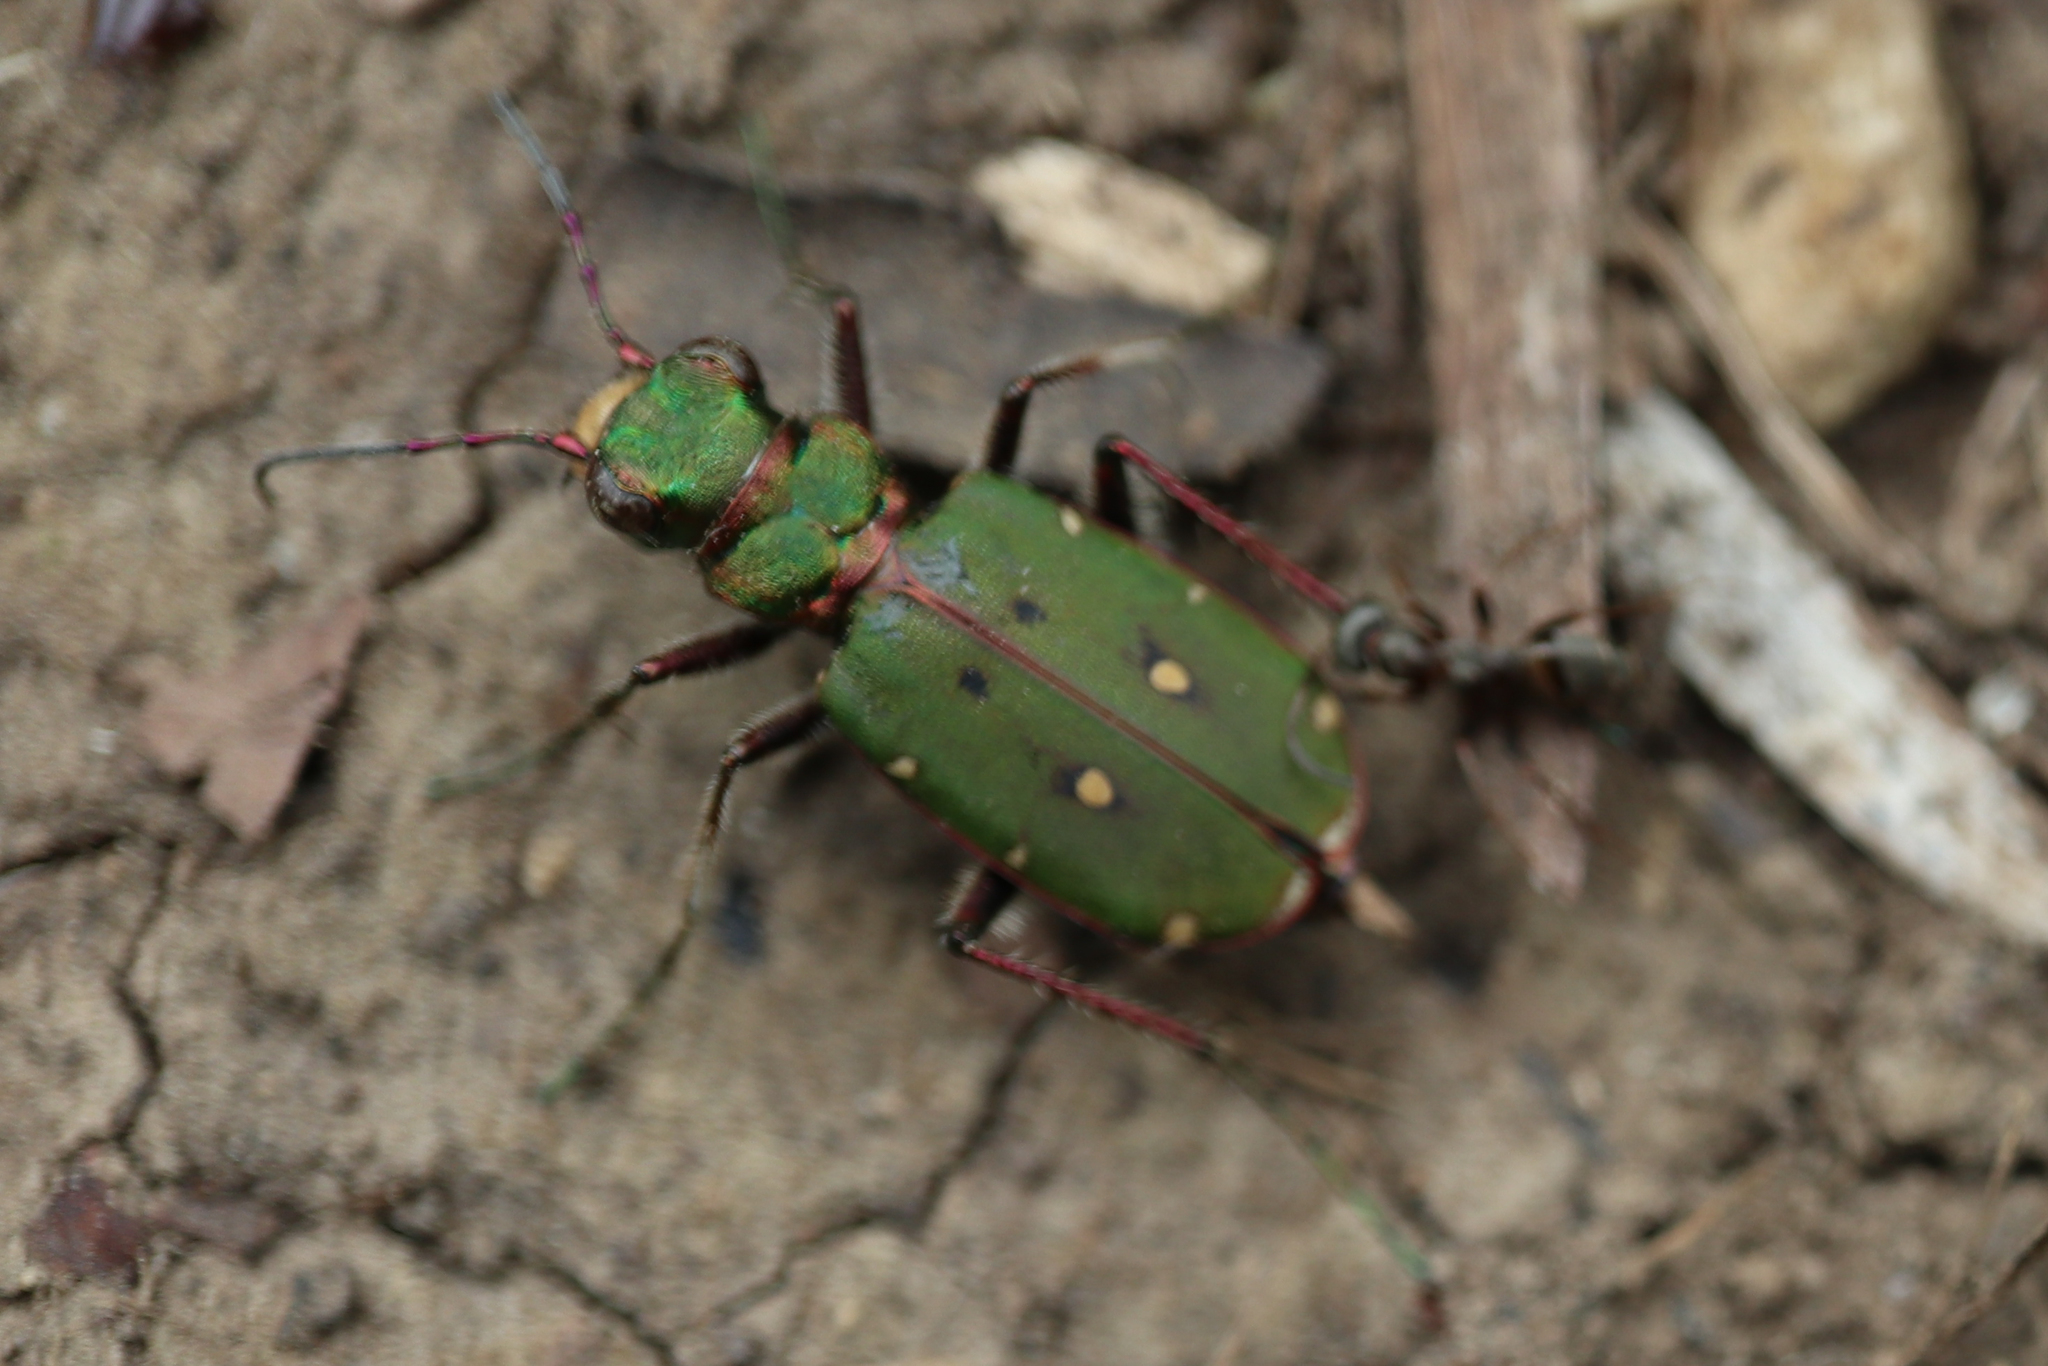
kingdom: Animalia
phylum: Arthropoda
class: Insecta
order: Coleoptera
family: Carabidae
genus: Cicindela
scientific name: Cicindela campestris
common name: Common tiger beetle
